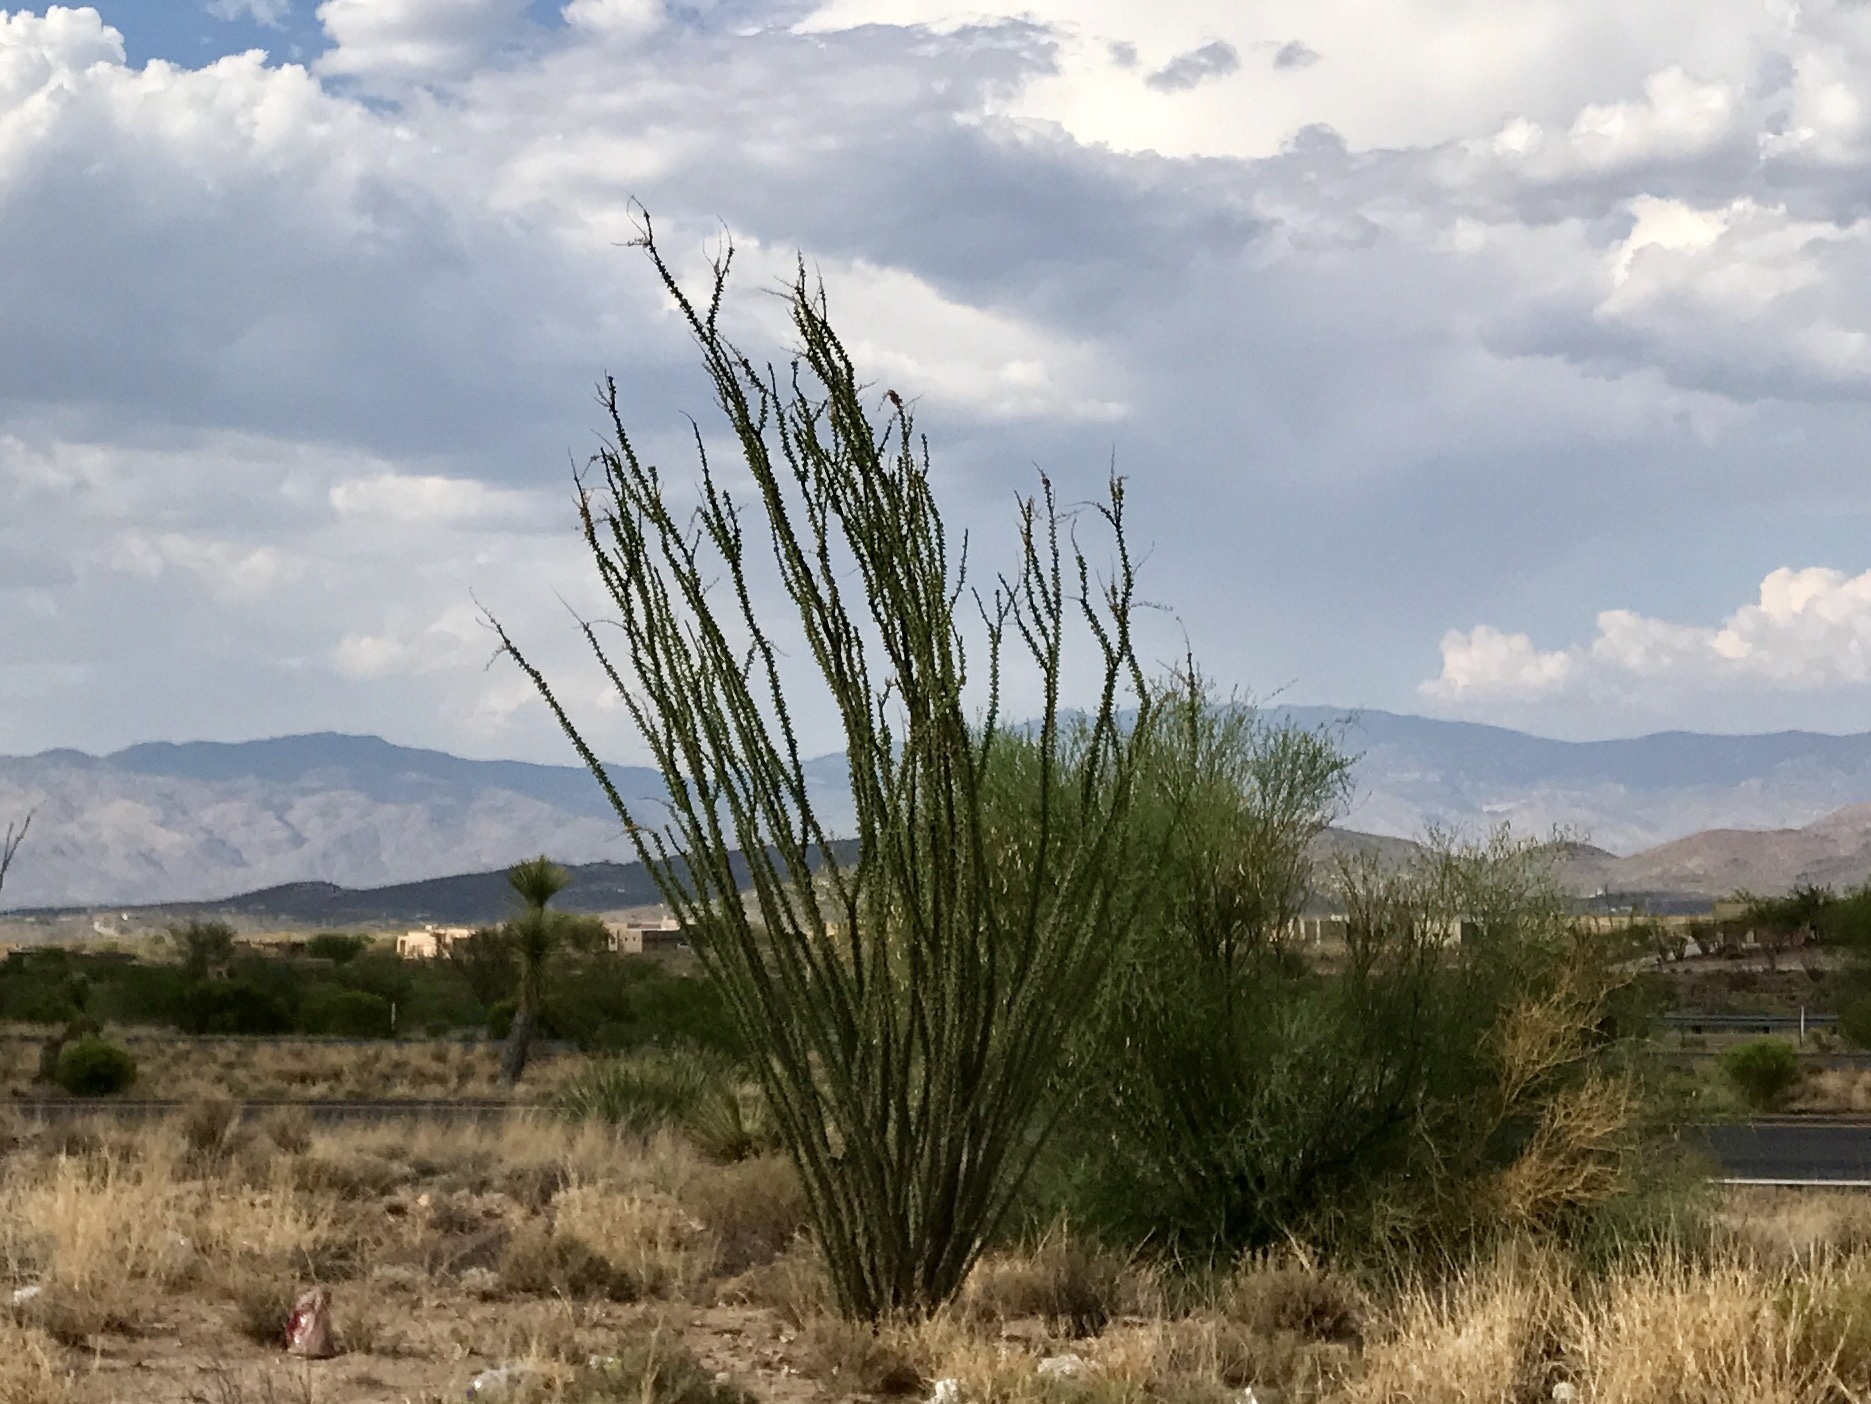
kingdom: Plantae
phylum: Tracheophyta
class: Magnoliopsida
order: Ericales
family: Fouquieriaceae
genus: Fouquieria
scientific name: Fouquieria splendens
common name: Vine-cactus
